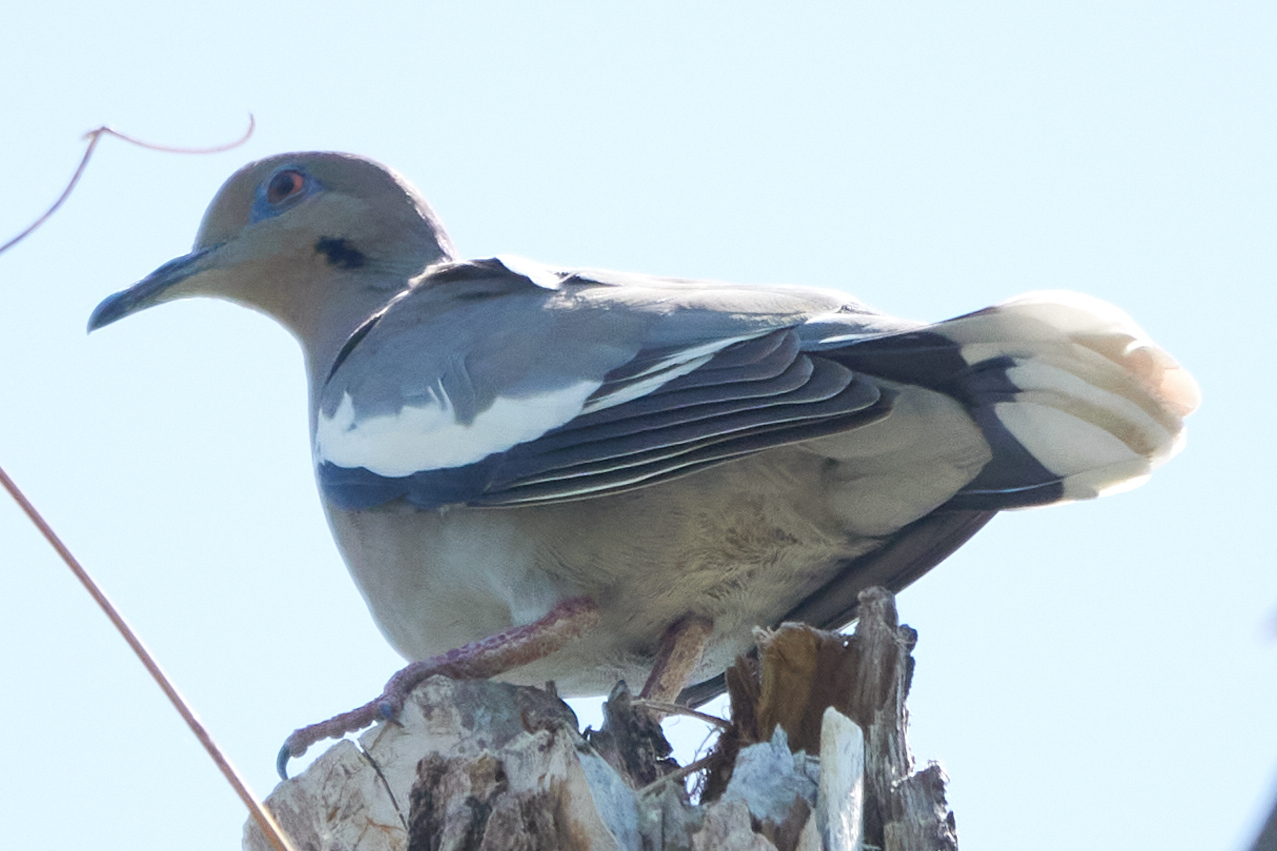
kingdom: Animalia
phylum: Chordata
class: Aves
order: Columbiformes
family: Columbidae
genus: Zenaida
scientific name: Zenaida asiatica
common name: White-winged dove
